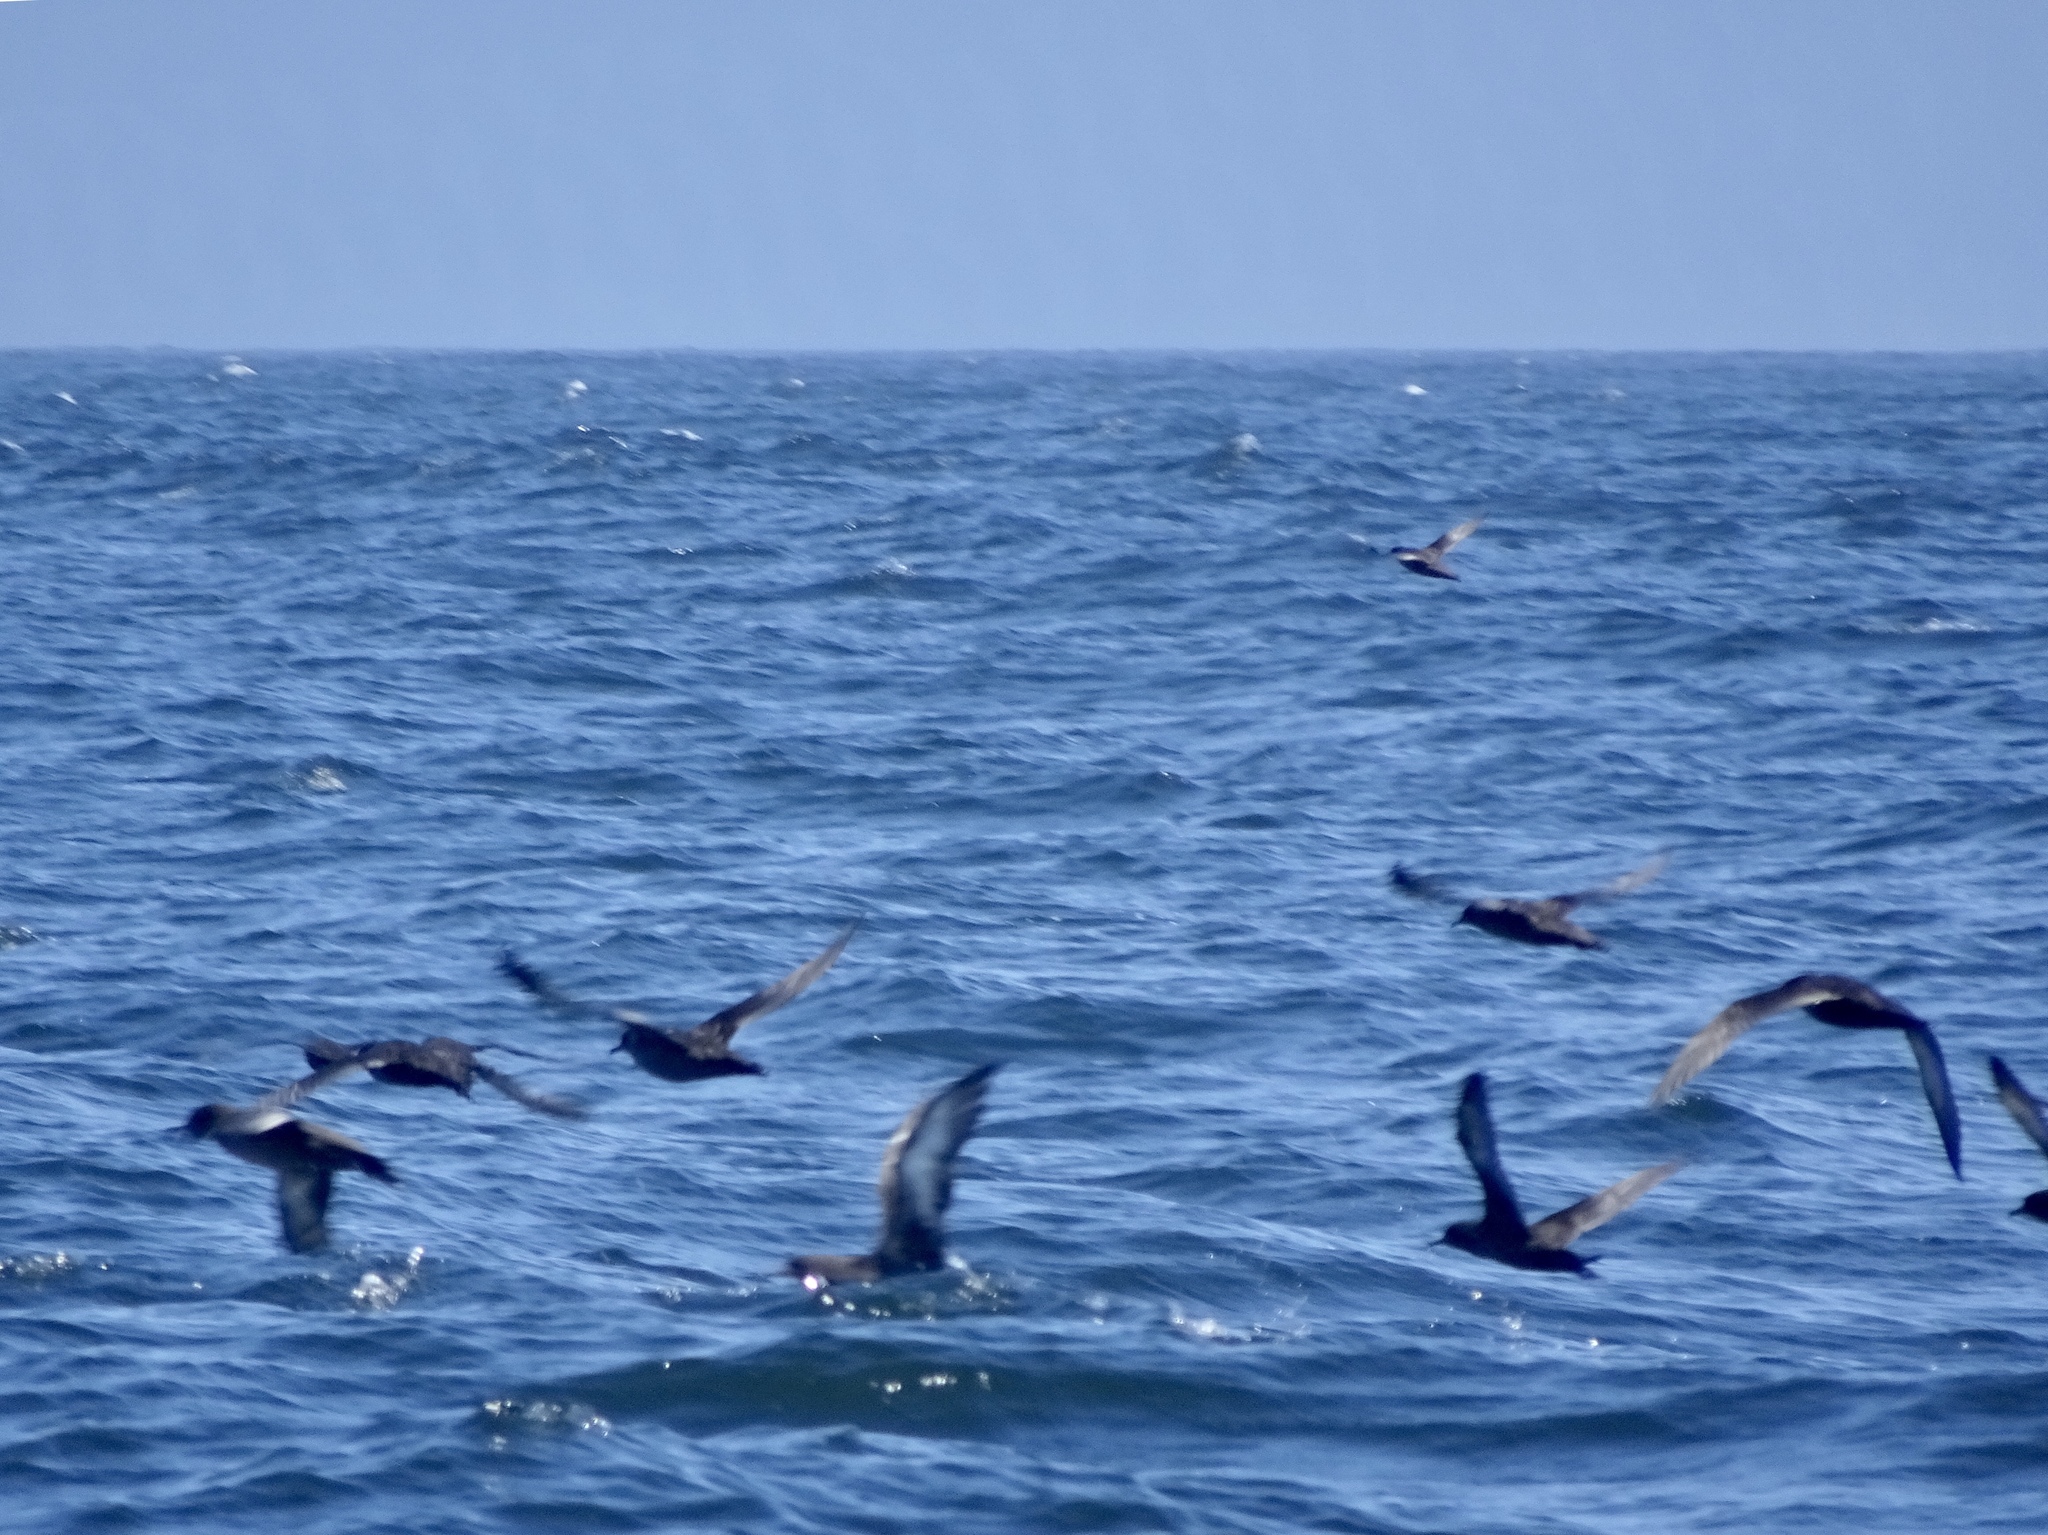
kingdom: Animalia
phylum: Chordata
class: Aves
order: Procellariiformes
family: Procellariidae
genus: Puffinus
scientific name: Puffinus griseus
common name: Sooty shearwater
